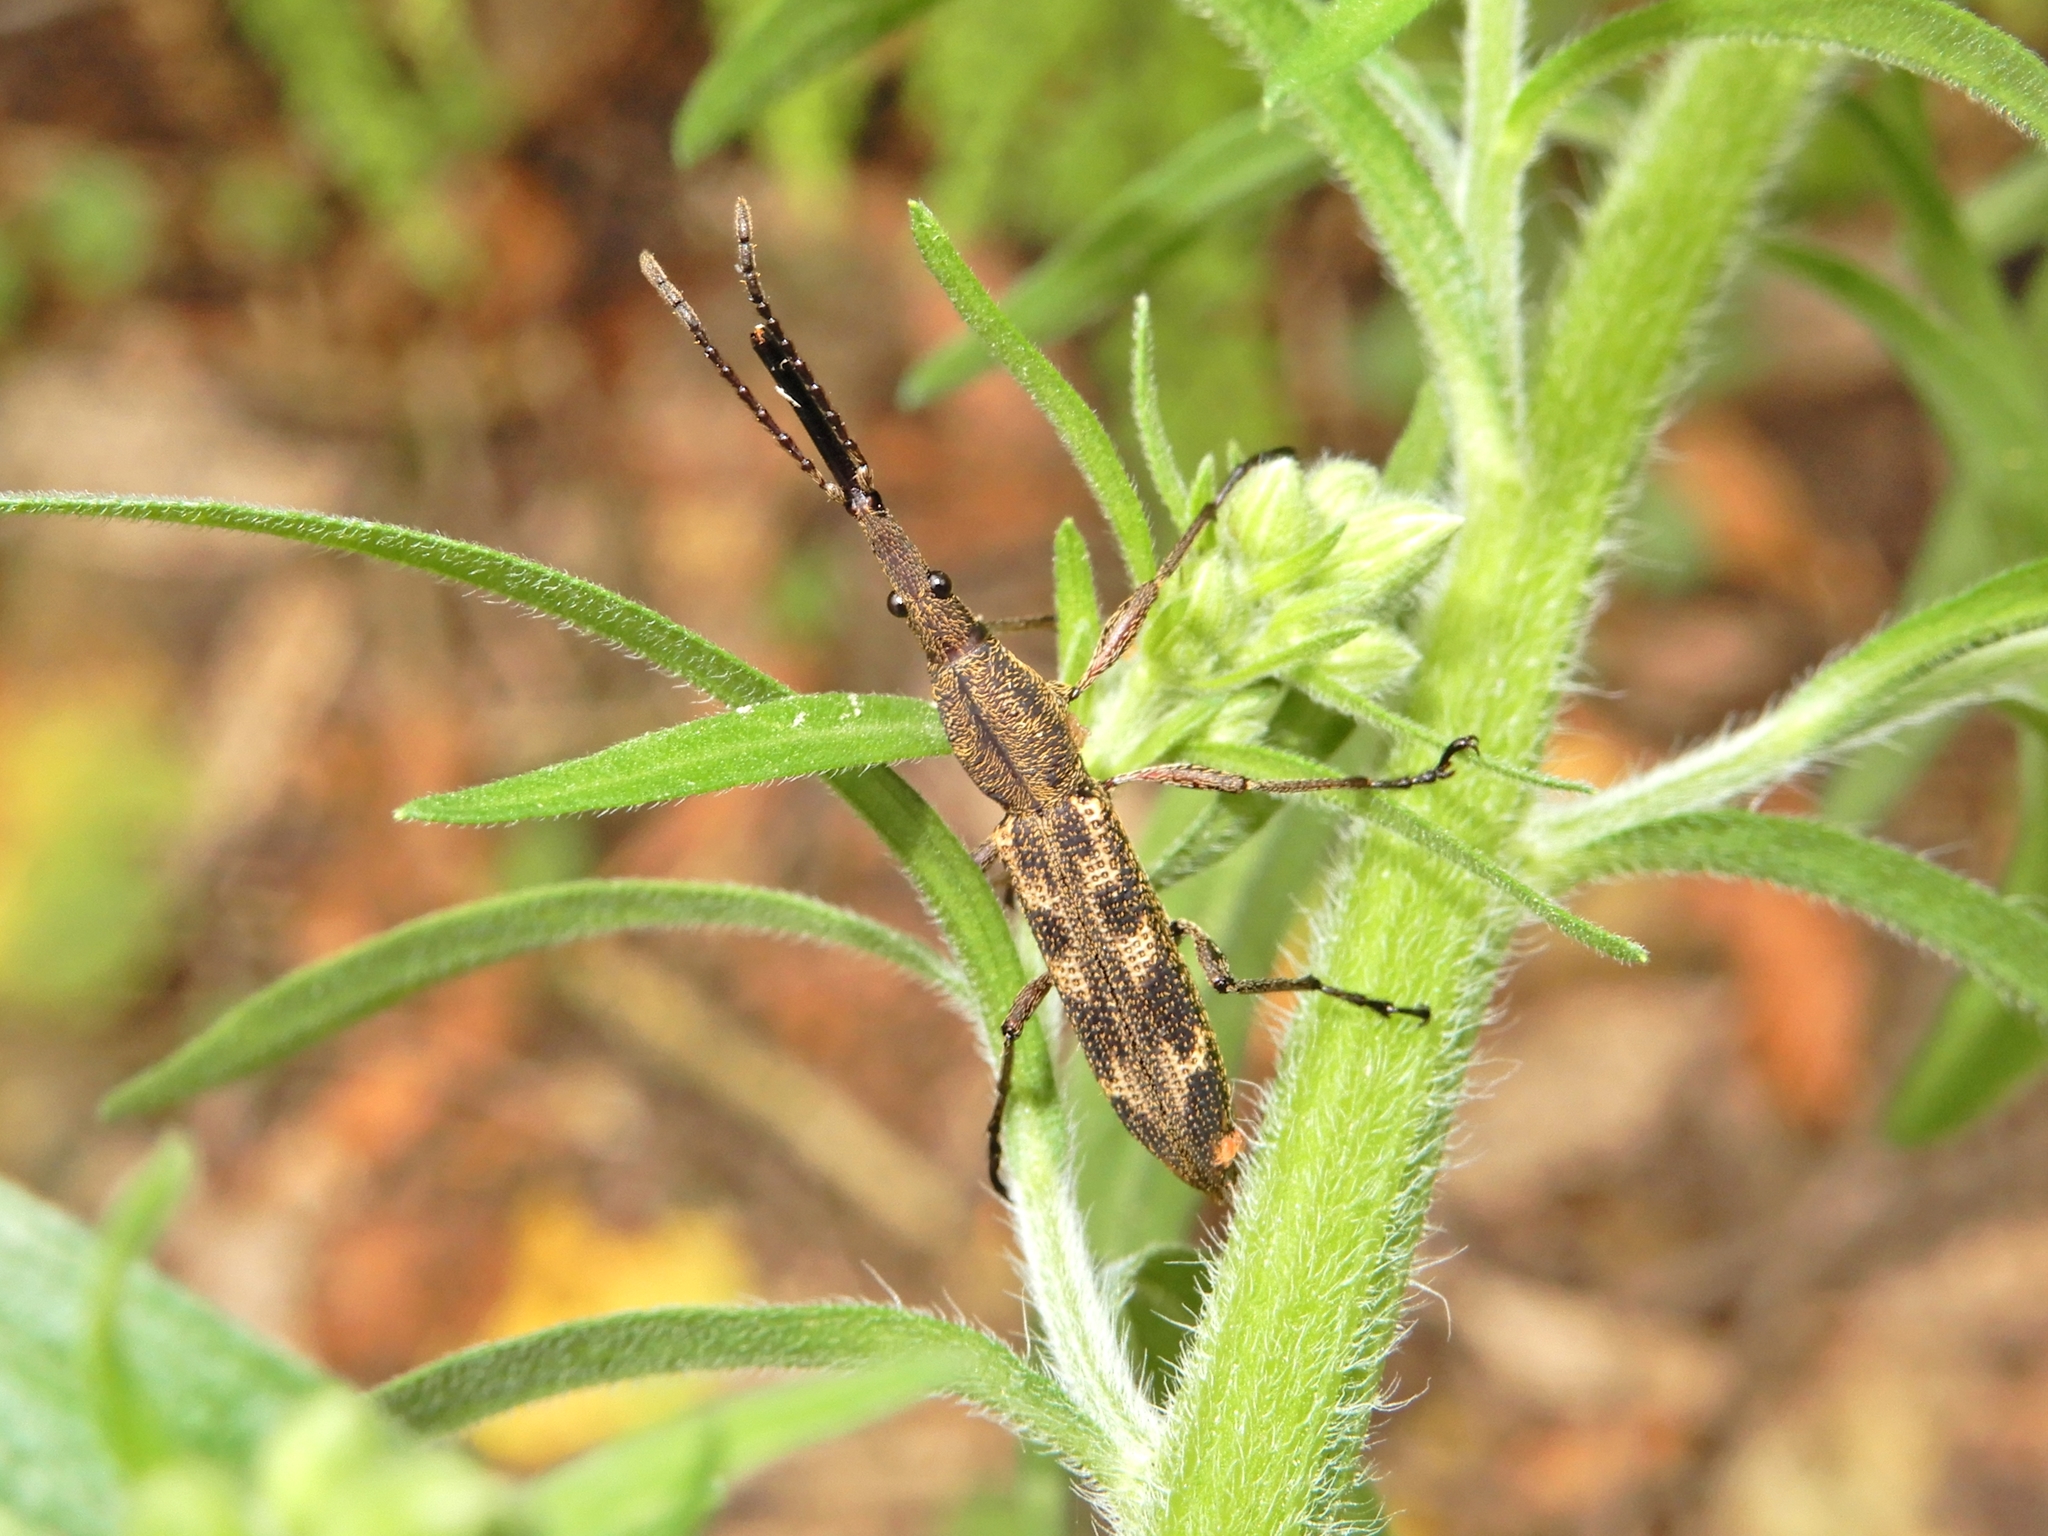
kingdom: Animalia
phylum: Arthropoda
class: Insecta
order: Coleoptera
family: Brentidae
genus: Lasiorhynchus
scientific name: Lasiorhynchus barbicornis
